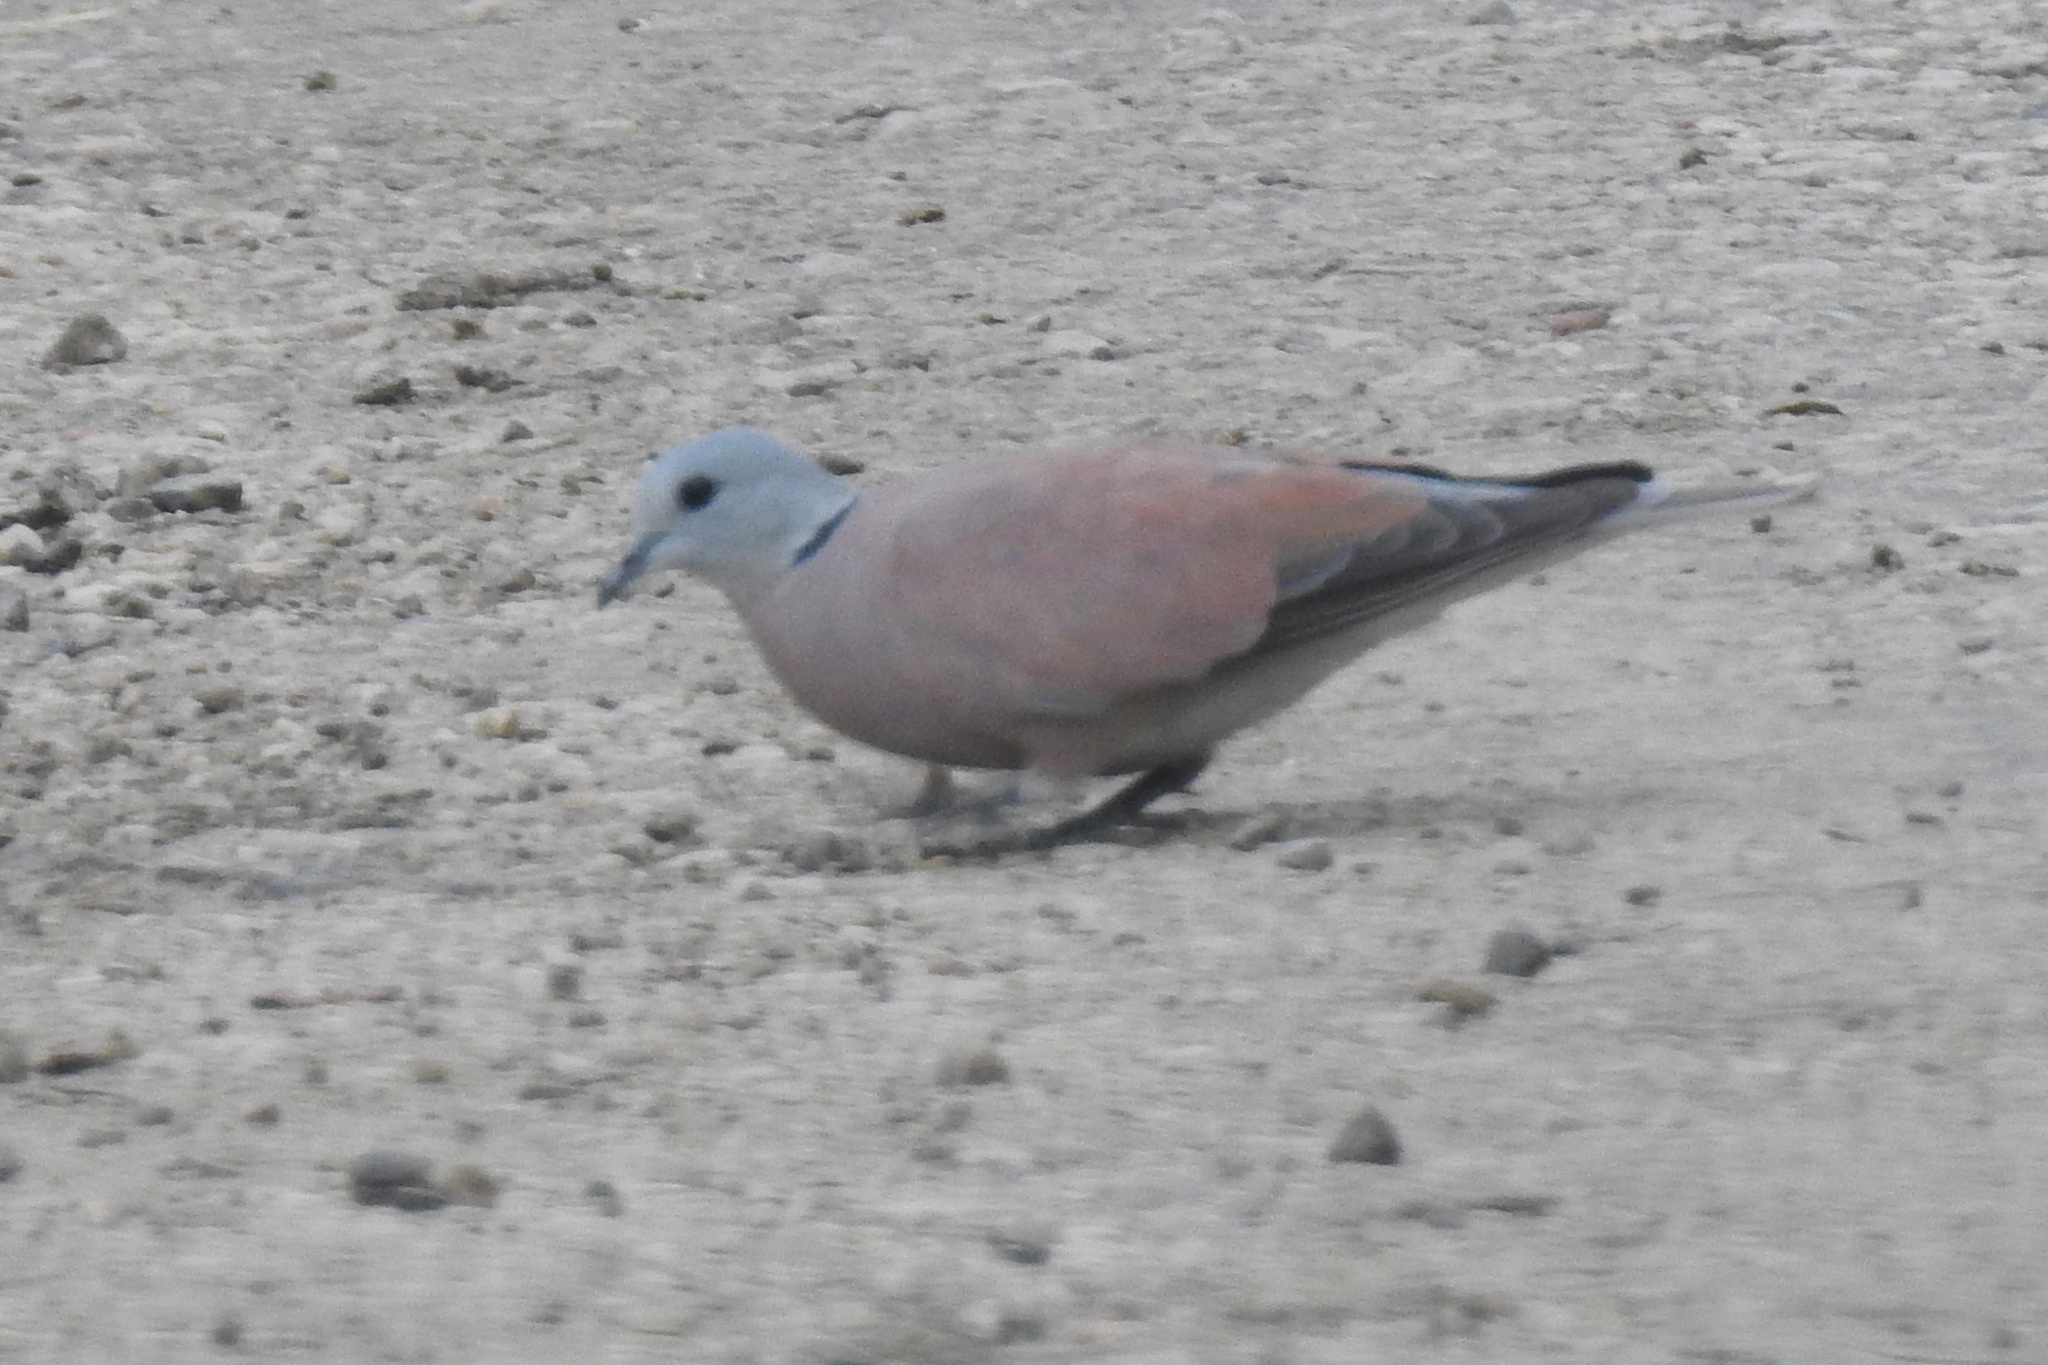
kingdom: Animalia
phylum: Chordata
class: Aves
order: Columbiformes
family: Columbidae
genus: Streptopelia
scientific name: Streptopelia tranquebarica
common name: Red turtle dove
